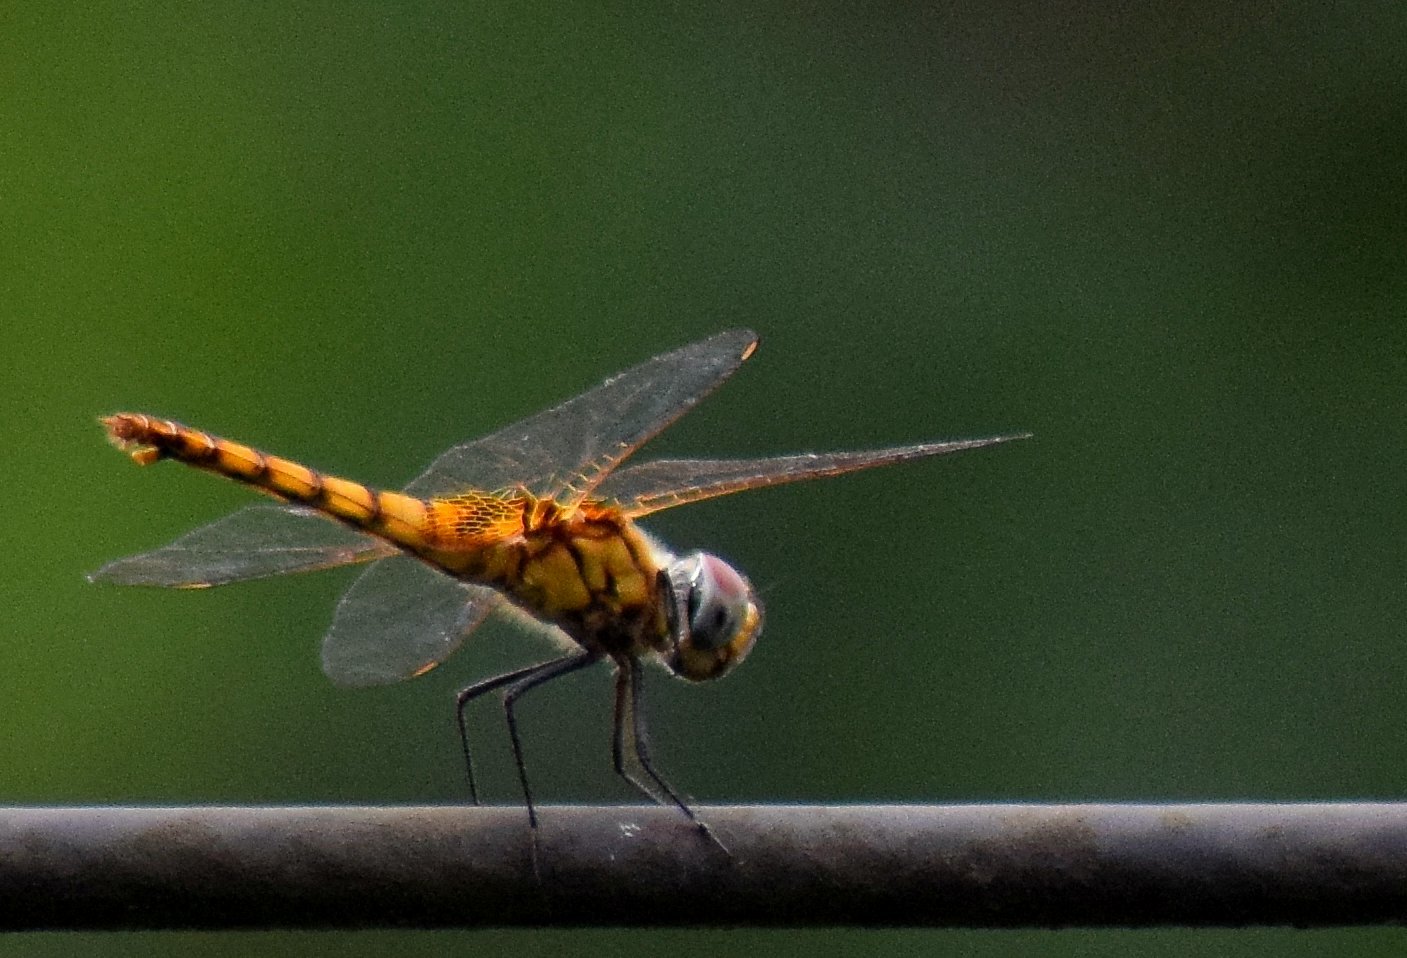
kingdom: Animalia
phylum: Arthropoda
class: Insecta
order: Odonata
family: Libellulidae
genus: Urothemis
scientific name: Urothemis signata
